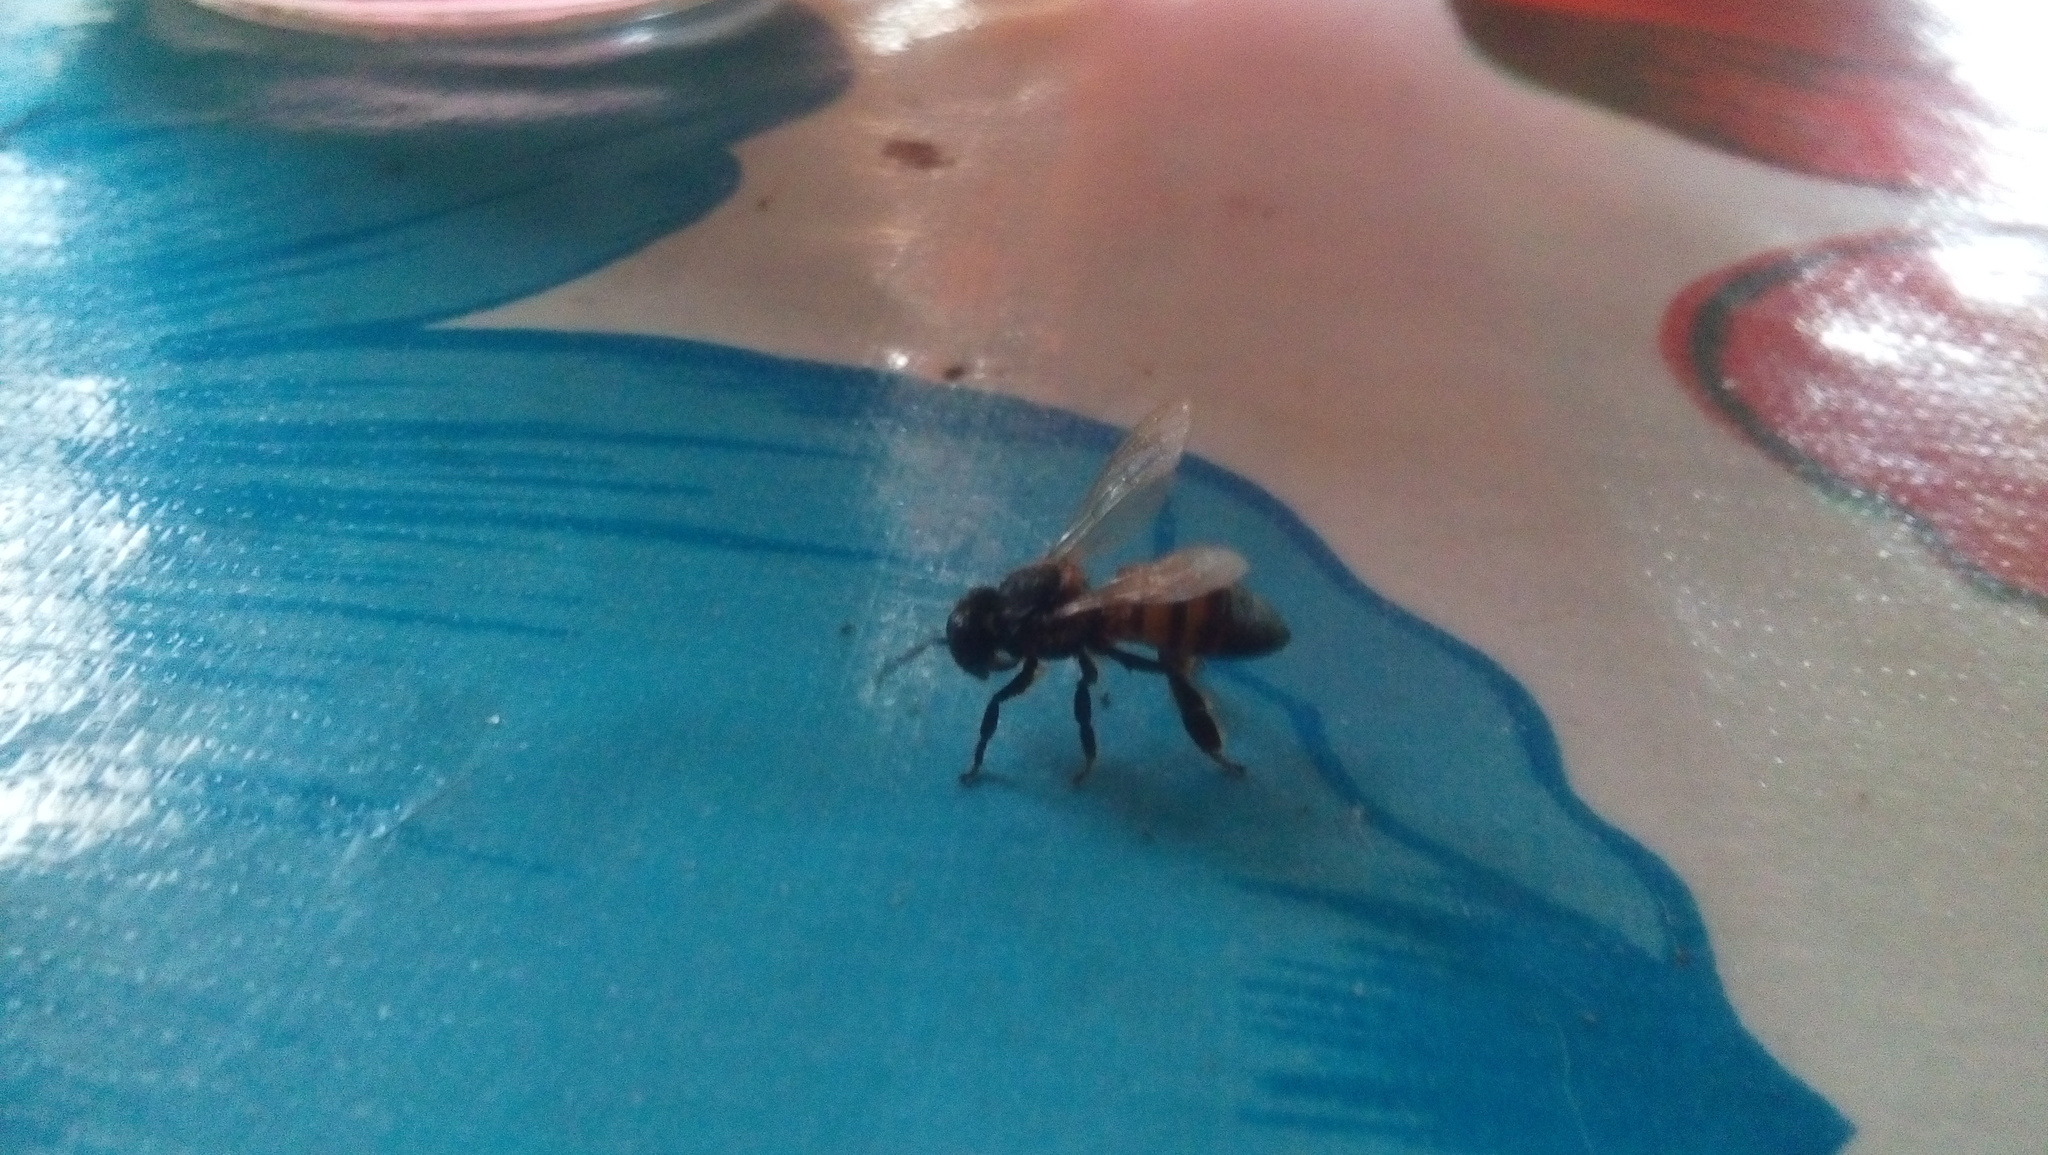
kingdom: Animalia
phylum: Arthropoda
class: Insecta
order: Hymenoptera
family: Apidae
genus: Apis
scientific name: Apis mellifera
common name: Honey bee
